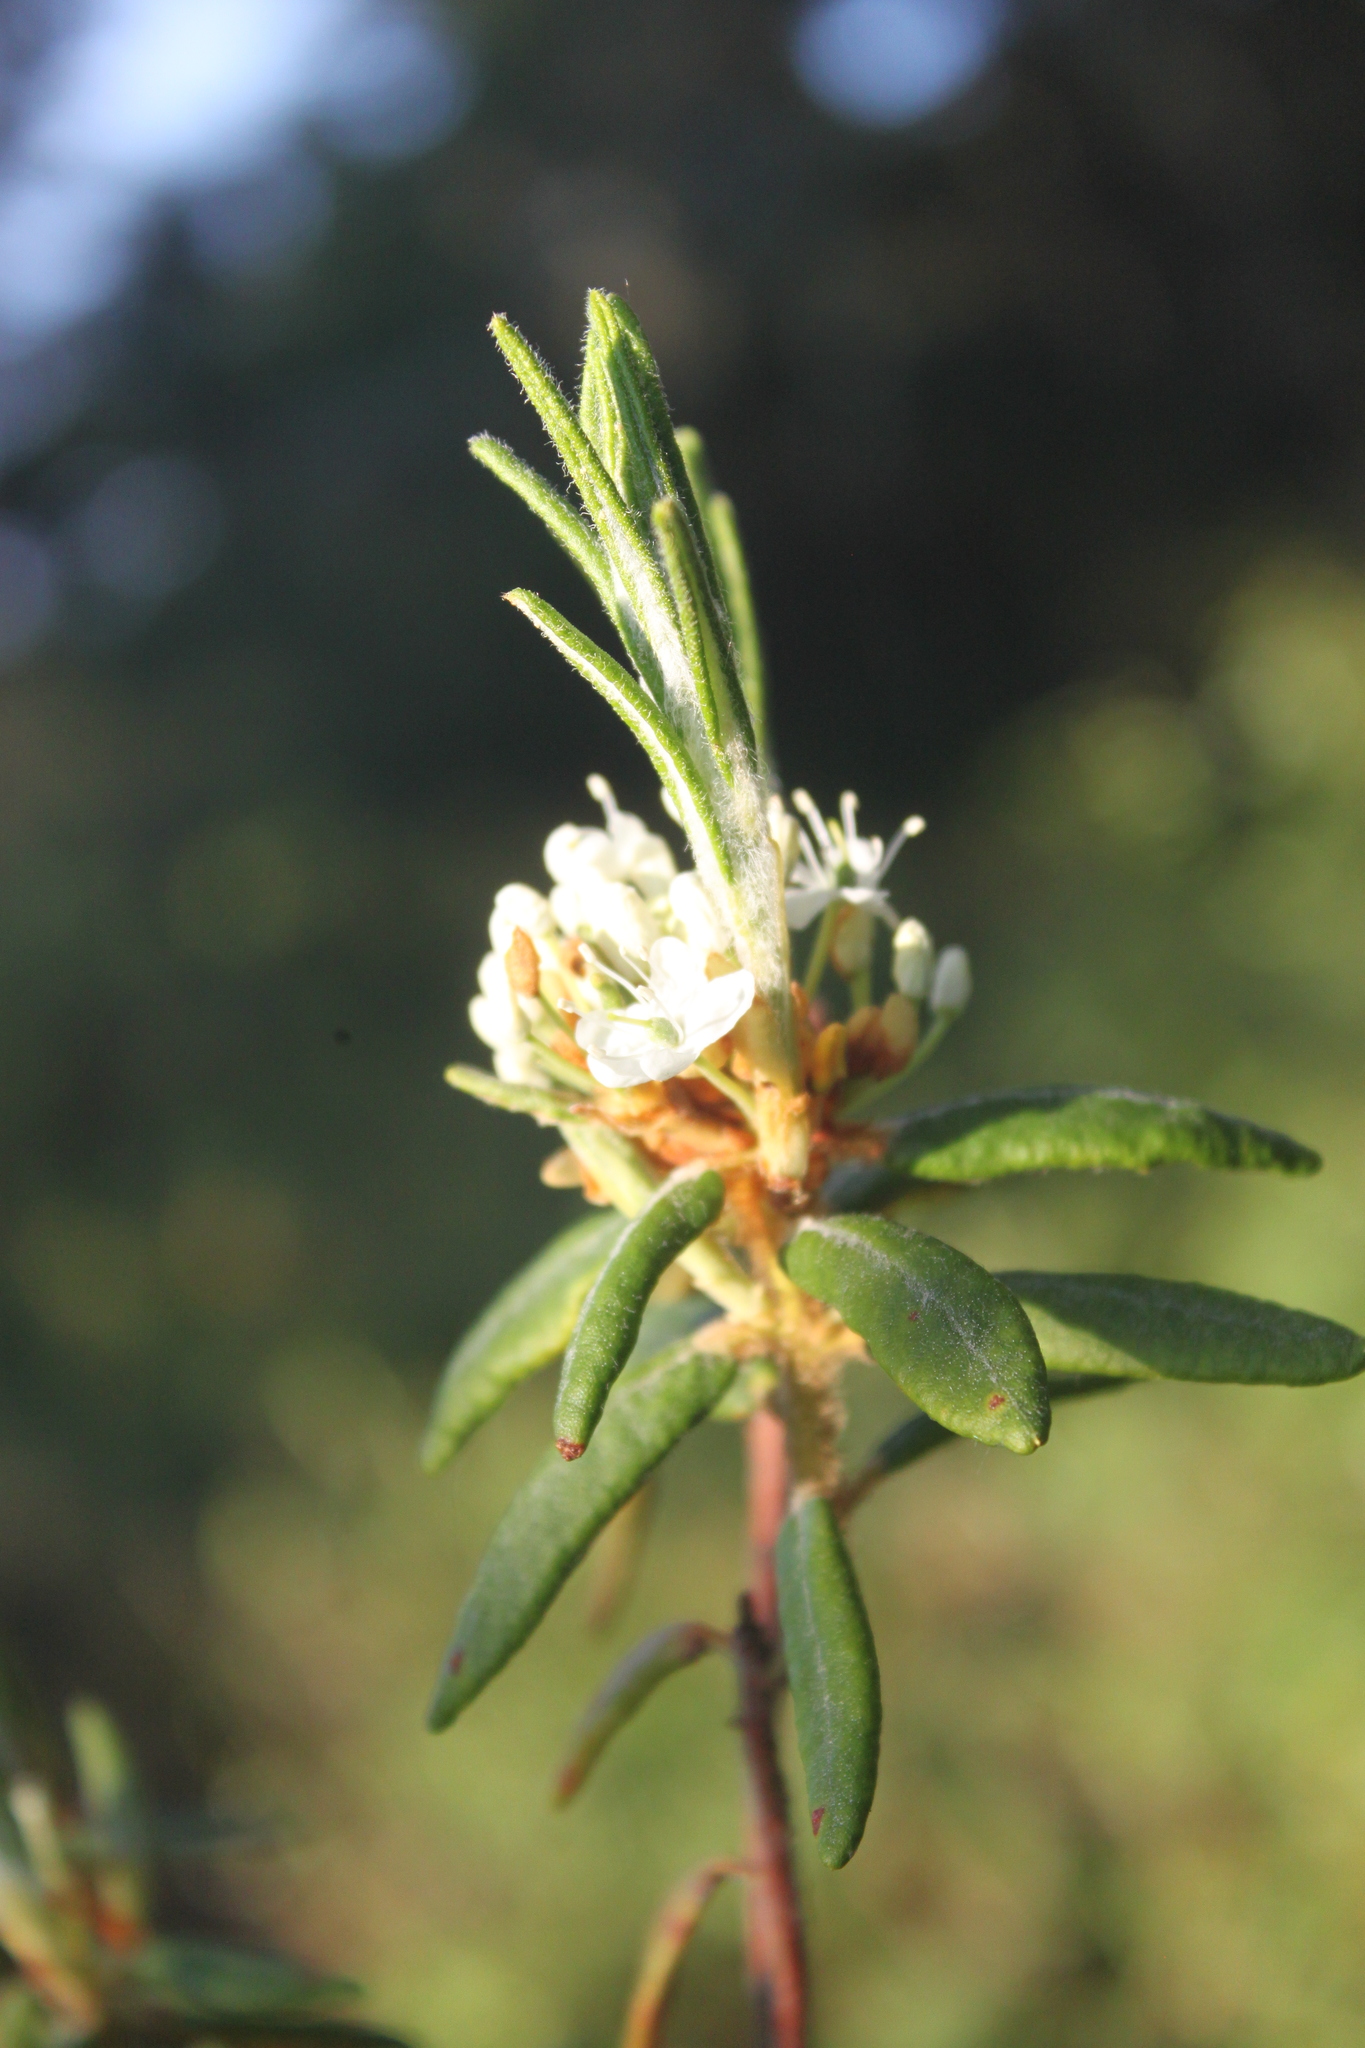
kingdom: Plantae
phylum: Tracheophyta
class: Magnoliopsida
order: Ericales
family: Ericaceae
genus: Rhododendron
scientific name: Rhododendron groenlandicum
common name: Bog labrador tea
